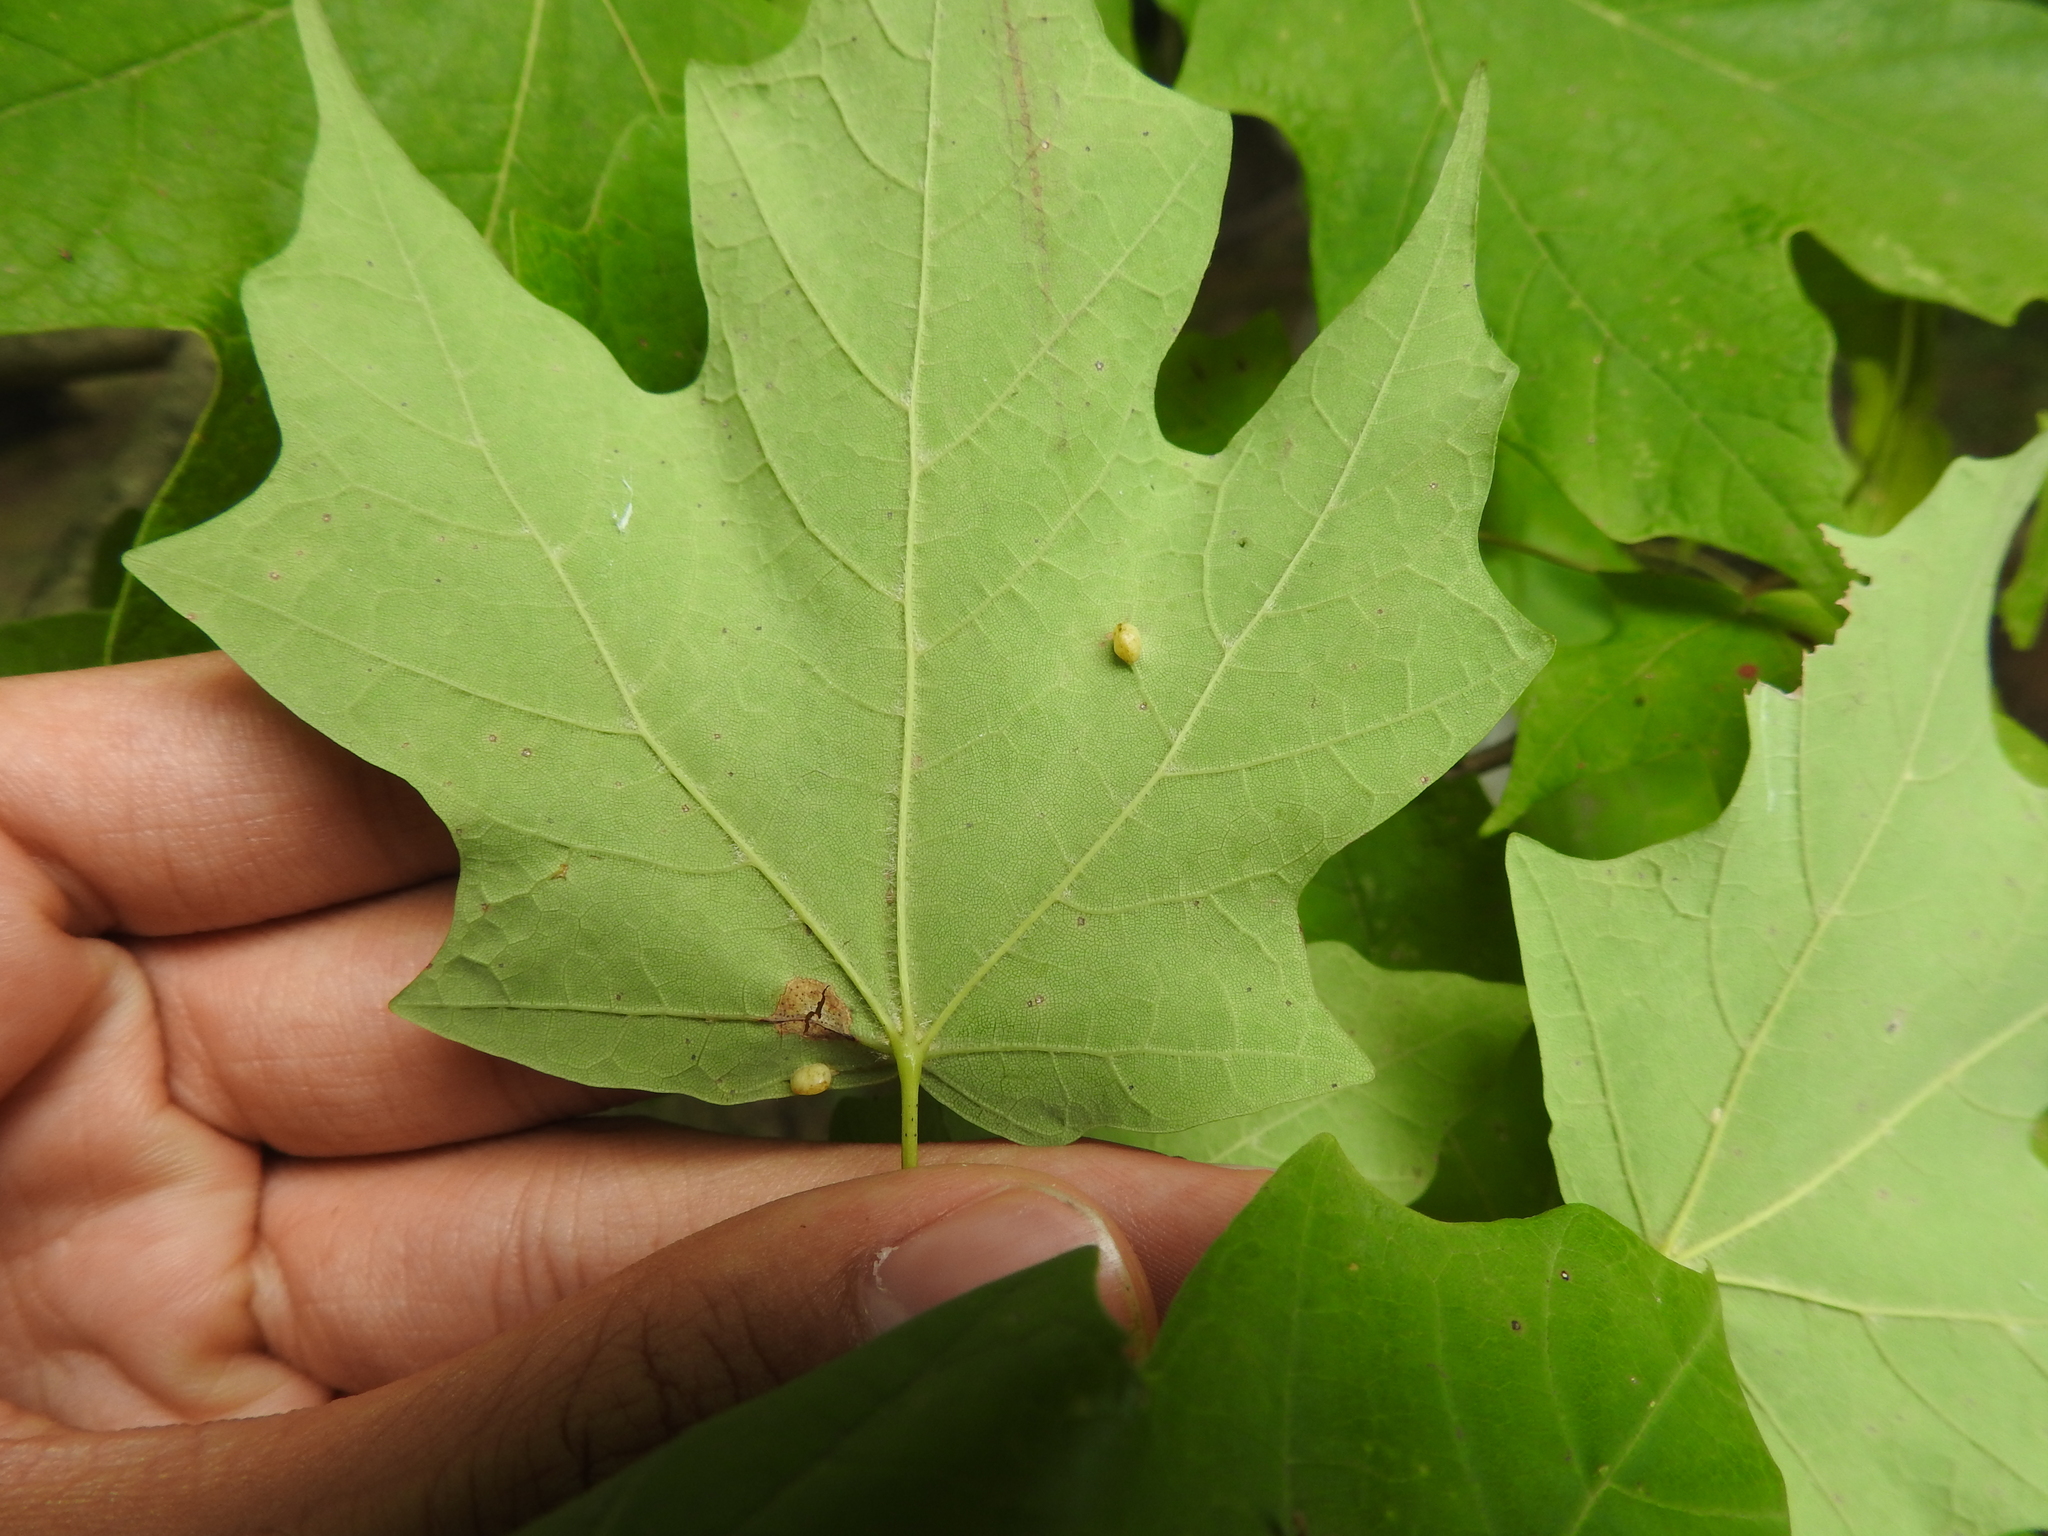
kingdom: Animalia
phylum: Arthropoda
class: Insecta
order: Diptera
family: Cecidomyiidae
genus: Dasineura
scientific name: Dasineura communis
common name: Gouty vein midge
